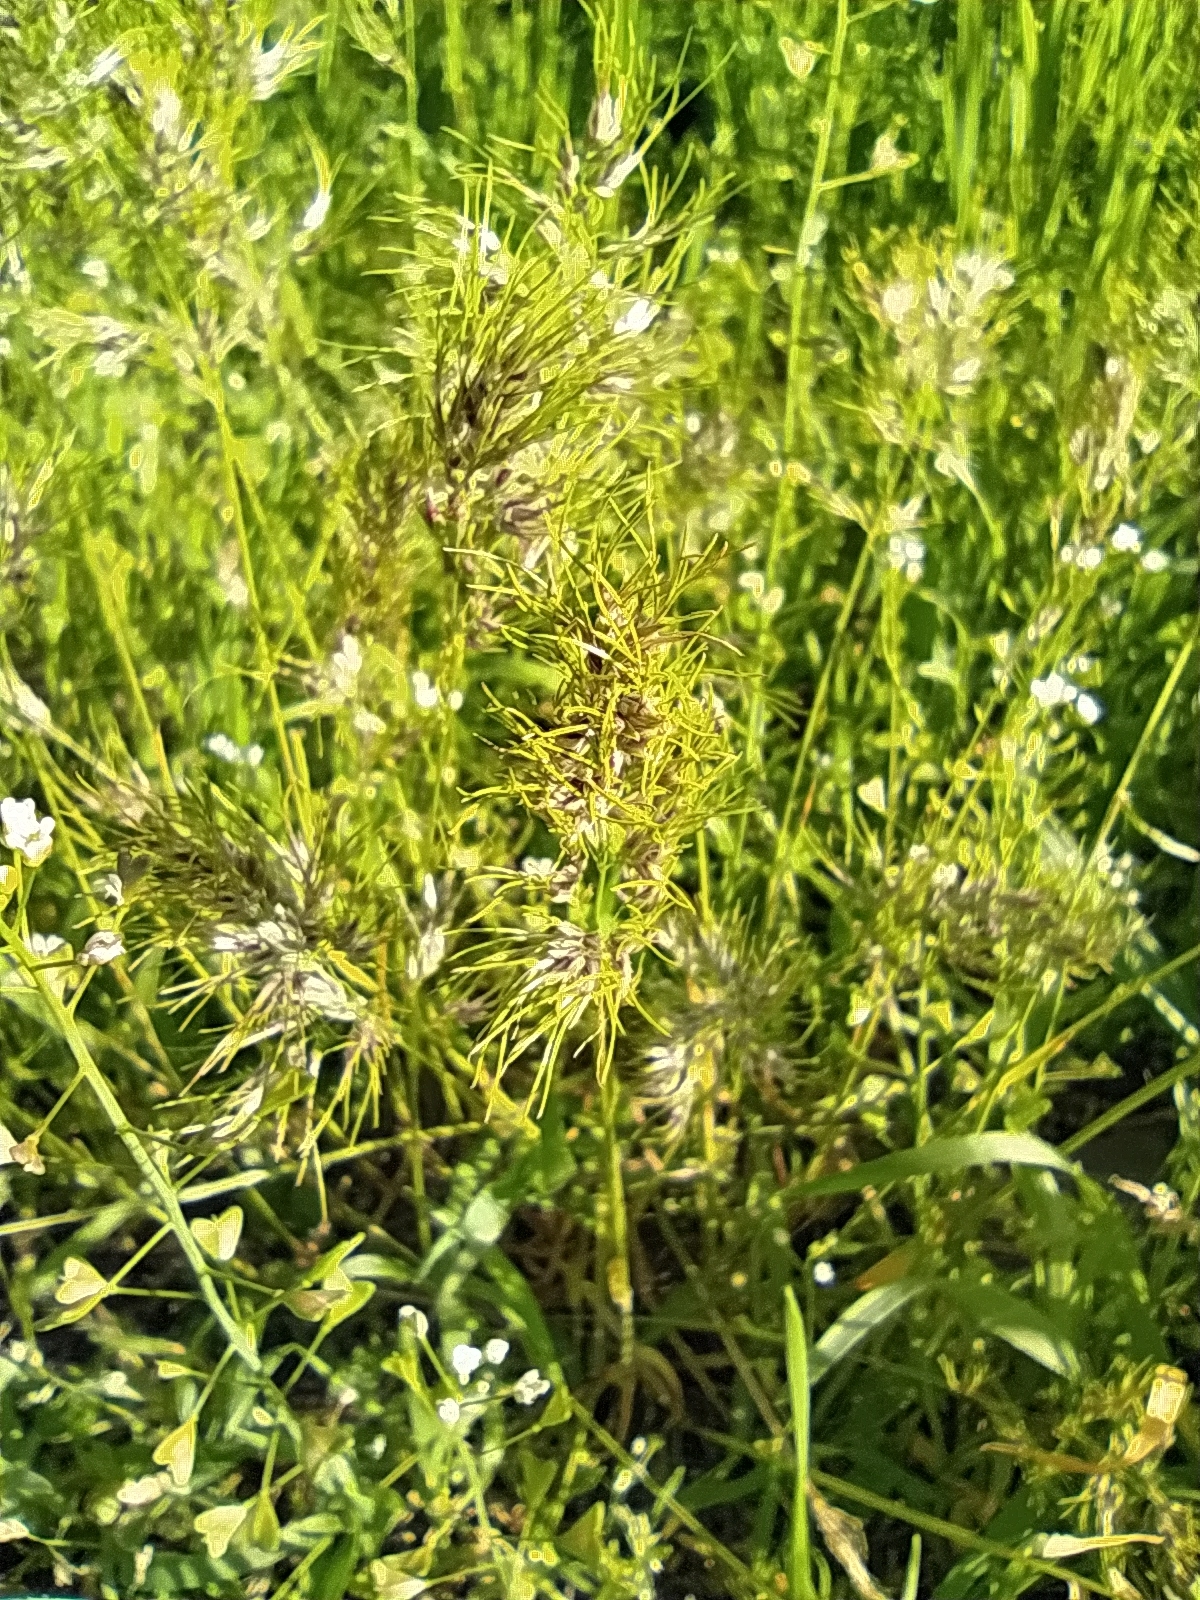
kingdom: Plantae
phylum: Tracheophyta
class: Liliopsida
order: Poales
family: Poaceae
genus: Poa
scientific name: Poa bulbosa
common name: Bulbous bluegrass
